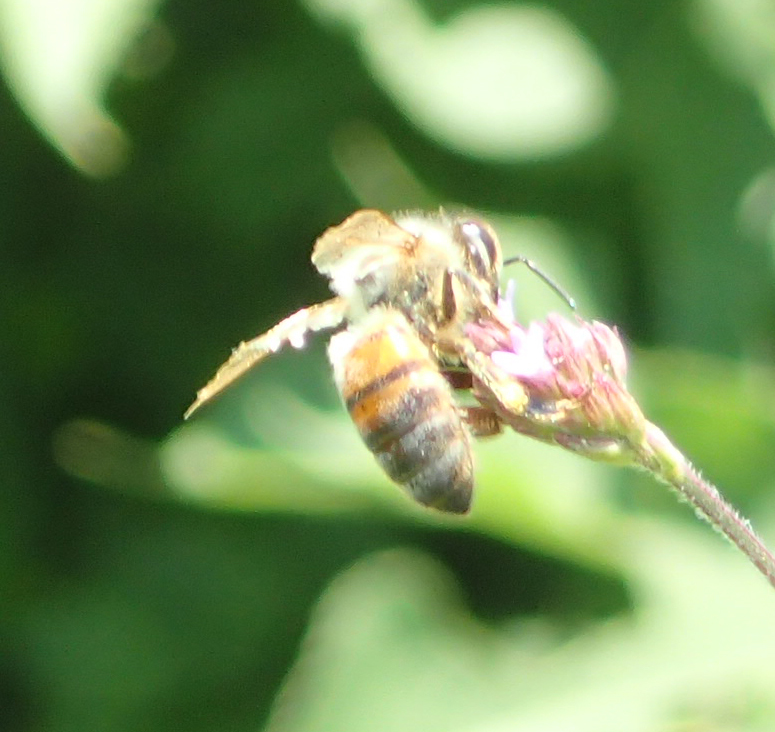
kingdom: Animalia
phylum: Arthropoda
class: Insecta
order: Hymenoptera
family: Apidae
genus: Apis
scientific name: Apis mellifera
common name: Honey bee
